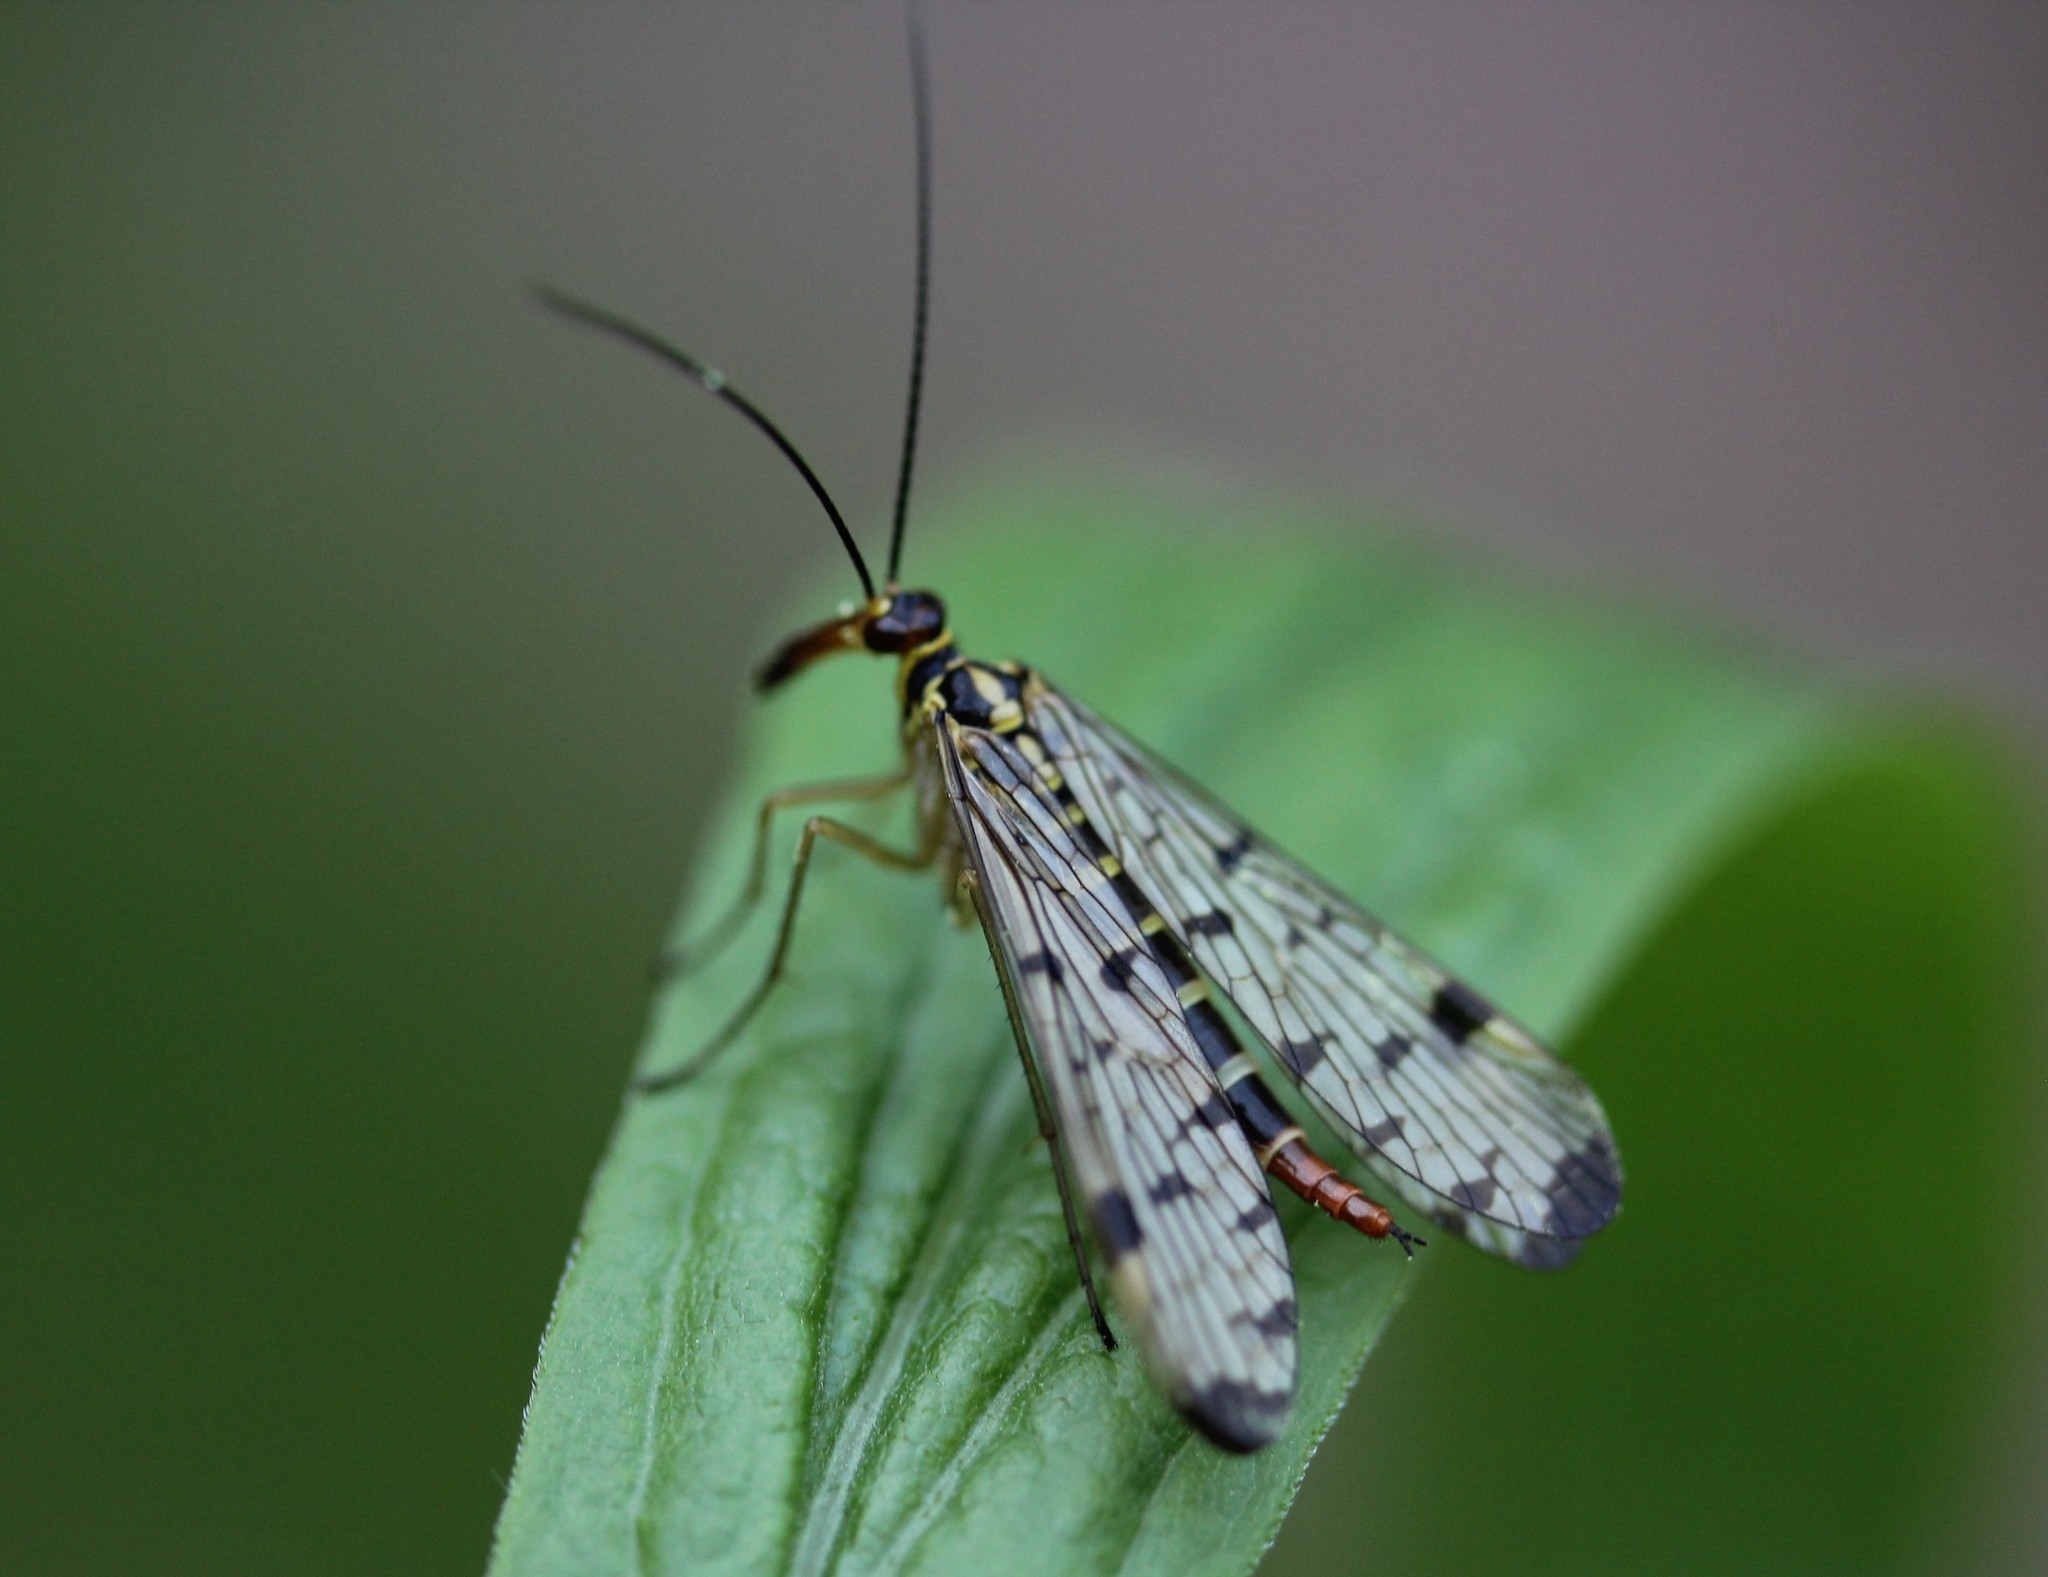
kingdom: Animalia
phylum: Arthropoda
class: Insecta
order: Mecoptera
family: Panorpidae
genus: Panorpa
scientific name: Panorpa germanica
